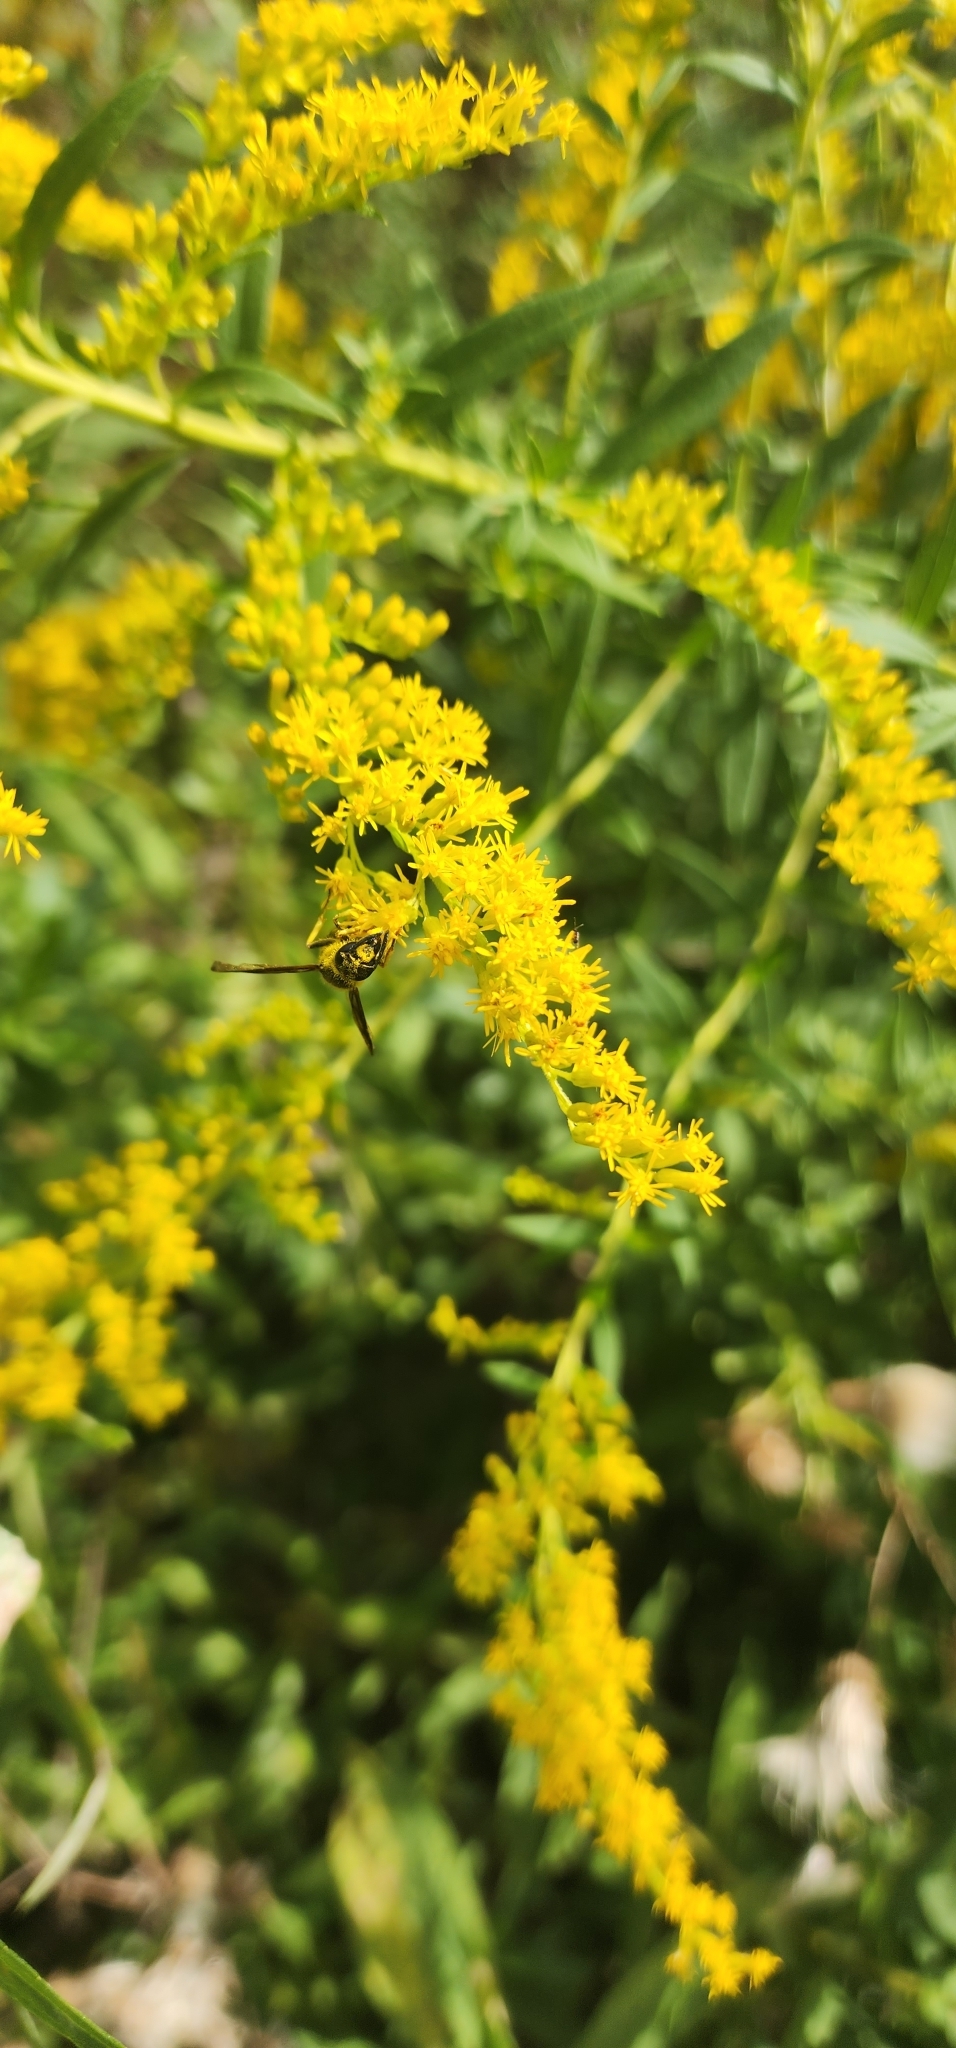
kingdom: Animalia
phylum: Arthropoda
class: Insecta
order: Coleoptera
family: Cerambycidae
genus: Megacyllene
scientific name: Megacyllene robiniae
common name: Locust borer
